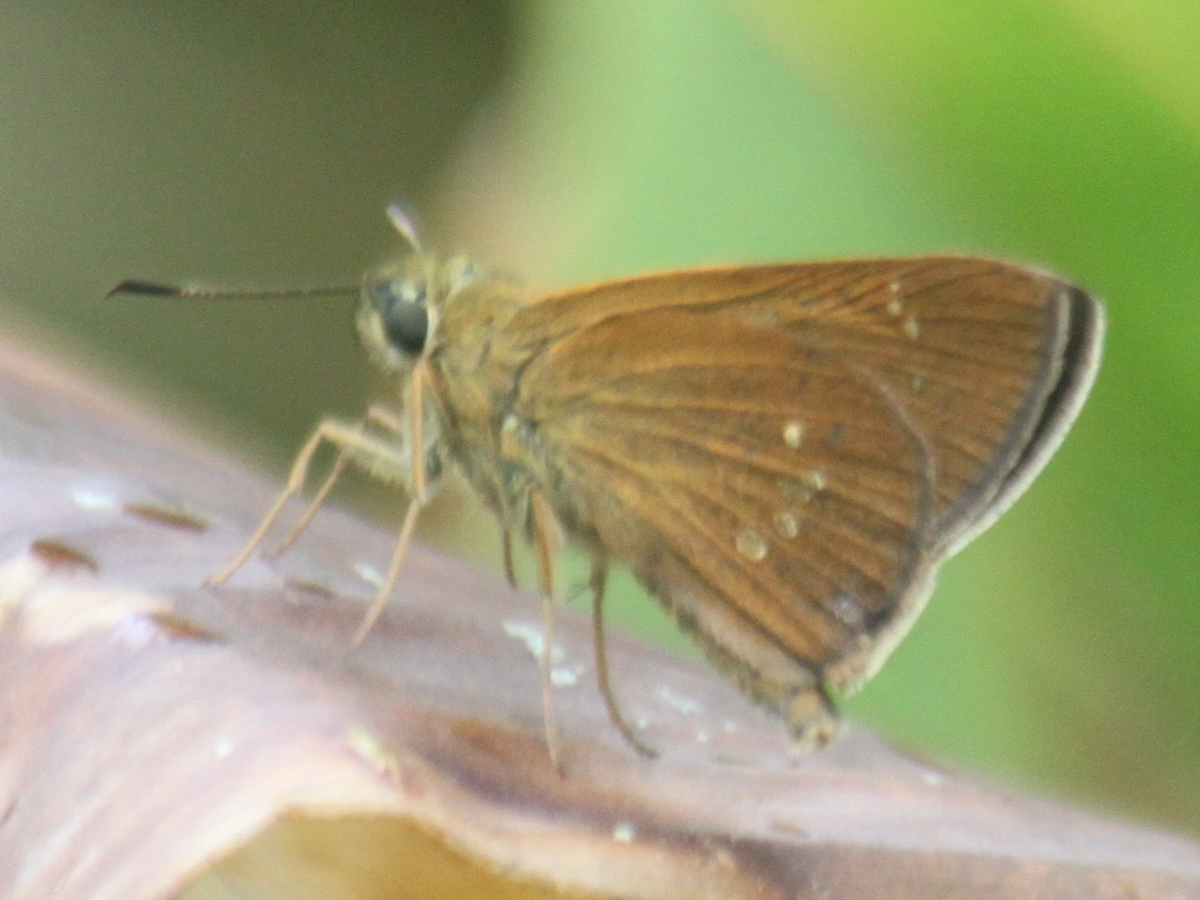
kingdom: Animalia
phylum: Arthropoda
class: Insecta
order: Lepidoptera
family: Hesperiidae
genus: Polytremis
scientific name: Polytremis lubricans
